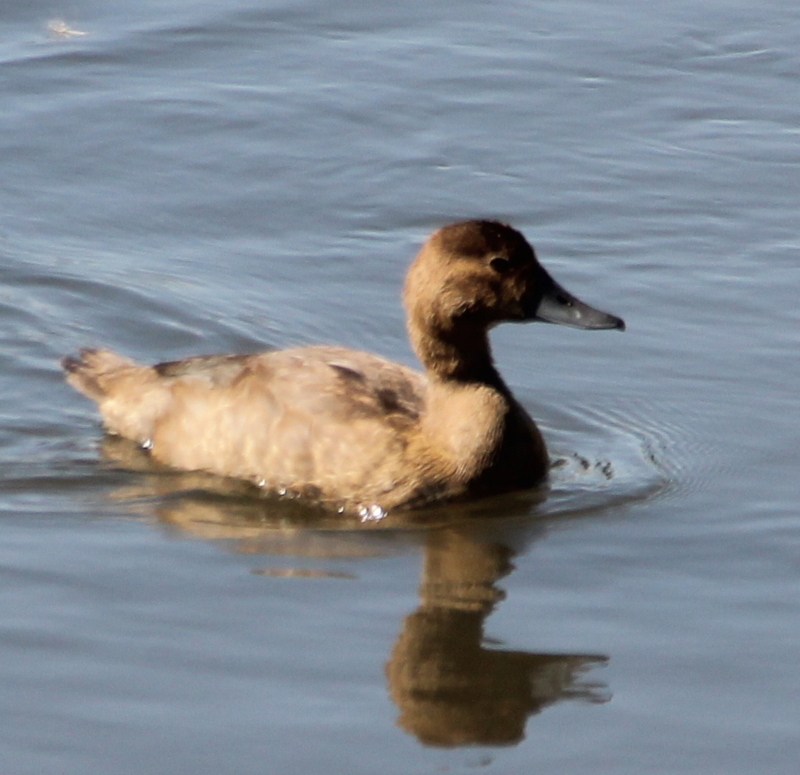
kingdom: Animalia
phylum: Chordata
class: Aves
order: Anseriformes
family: Anatidae
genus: Aythya
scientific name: Aythya americana
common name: Redhead
